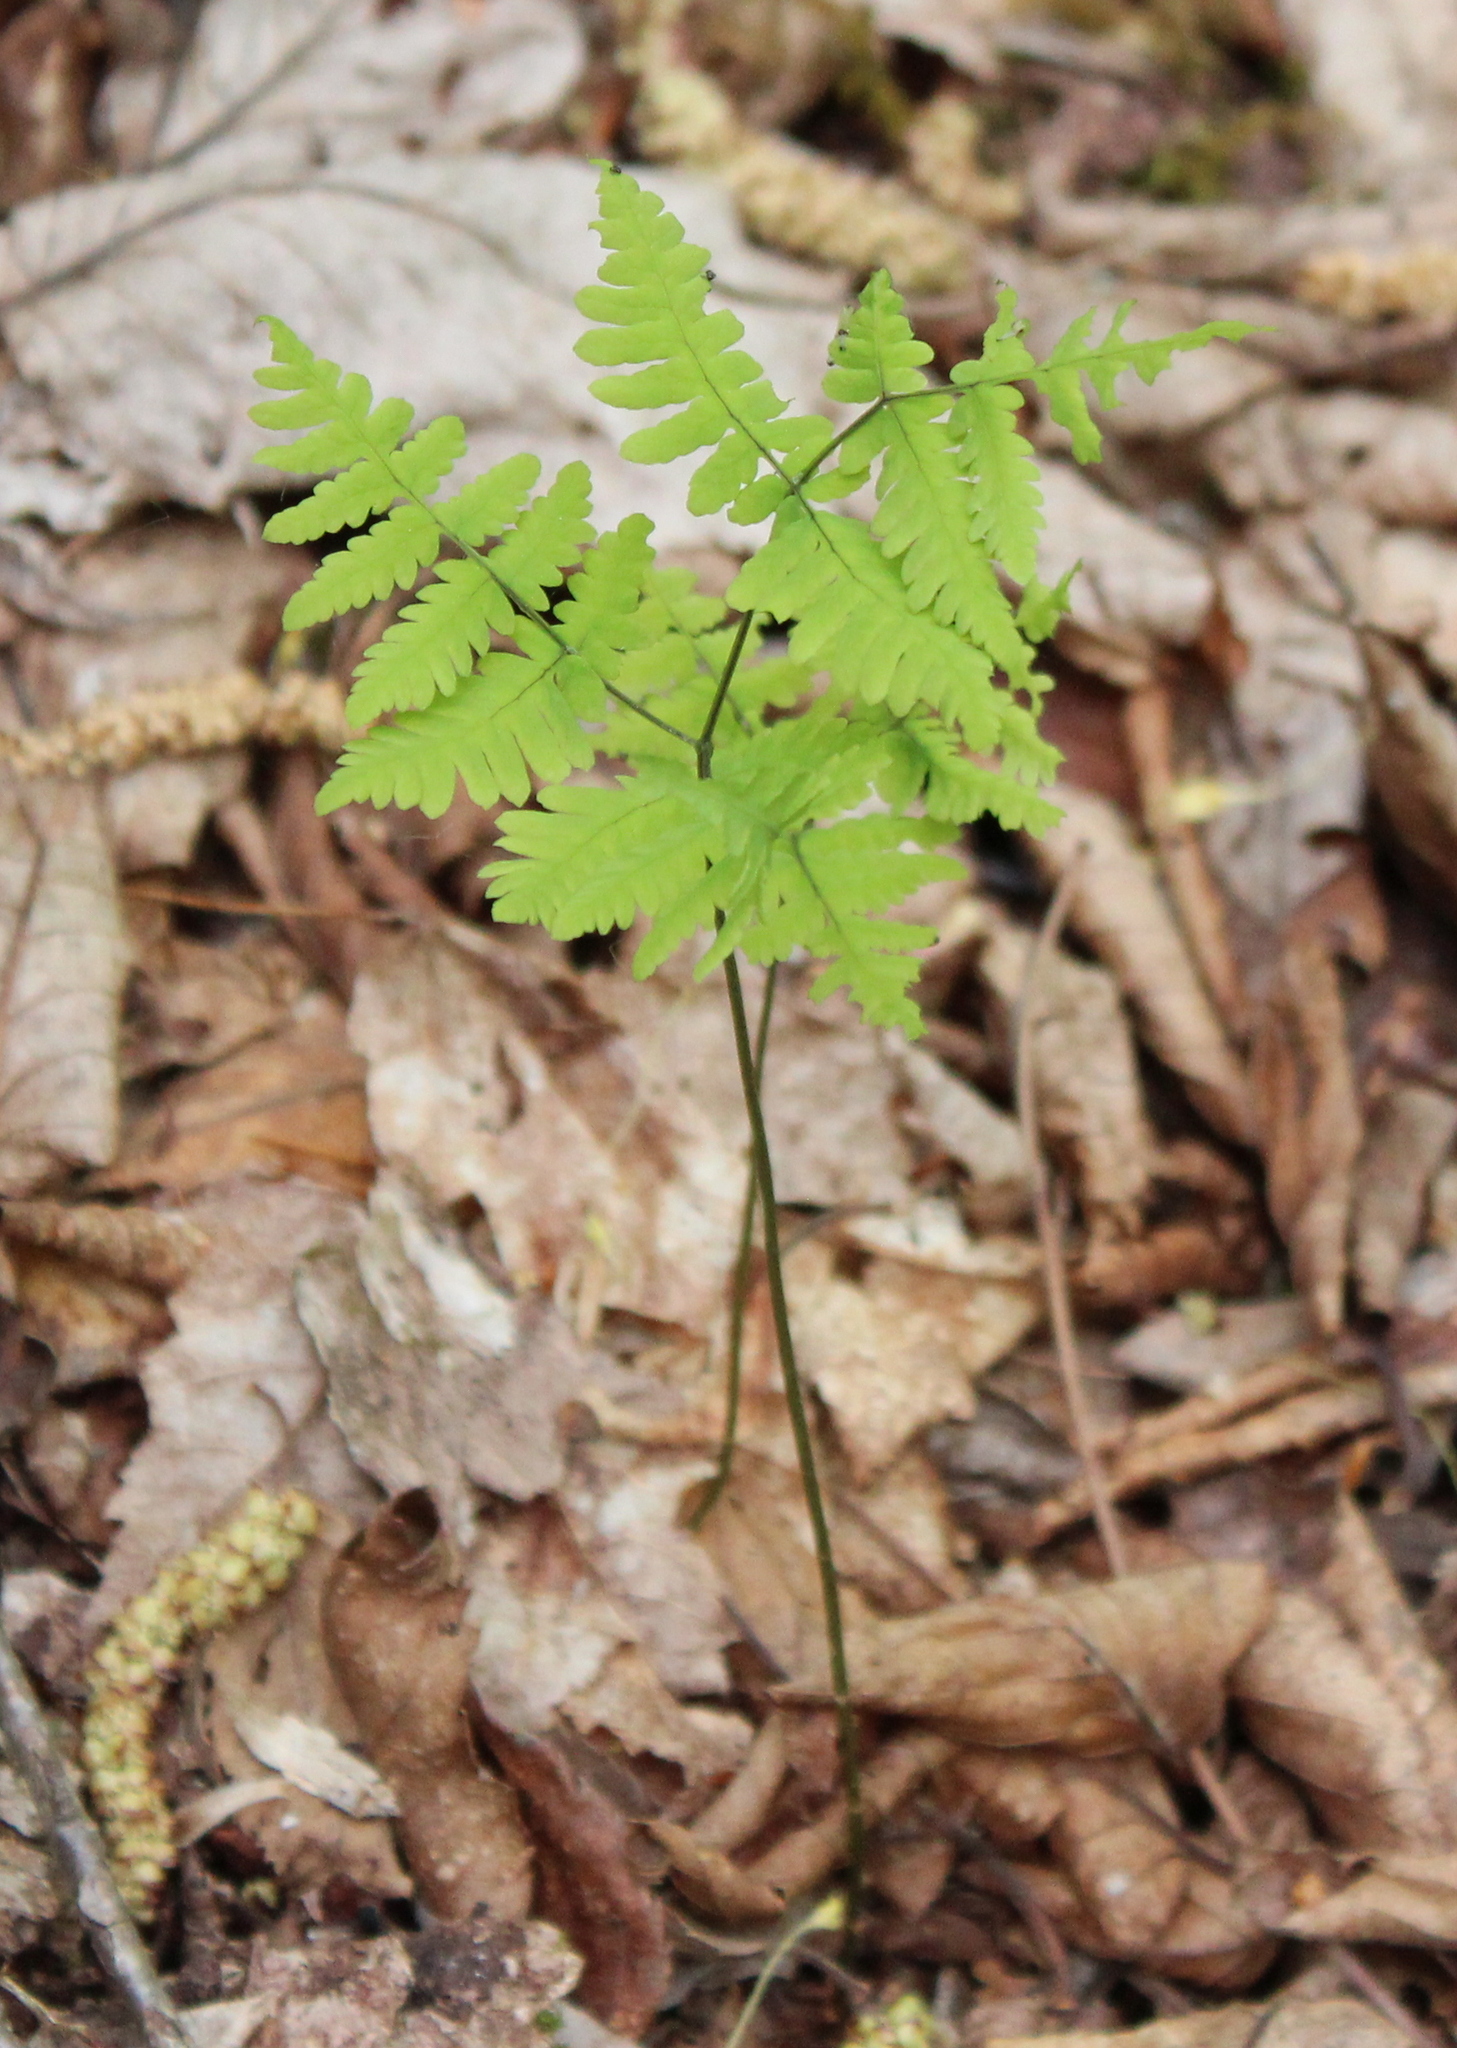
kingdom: Plantae
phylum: Tracheophyta
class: Polypodiopsida
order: Polypodiales
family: Cystopteridaceae
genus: Gymnocarpium
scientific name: Gymnocarpium dryopteris
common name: Oak fern
